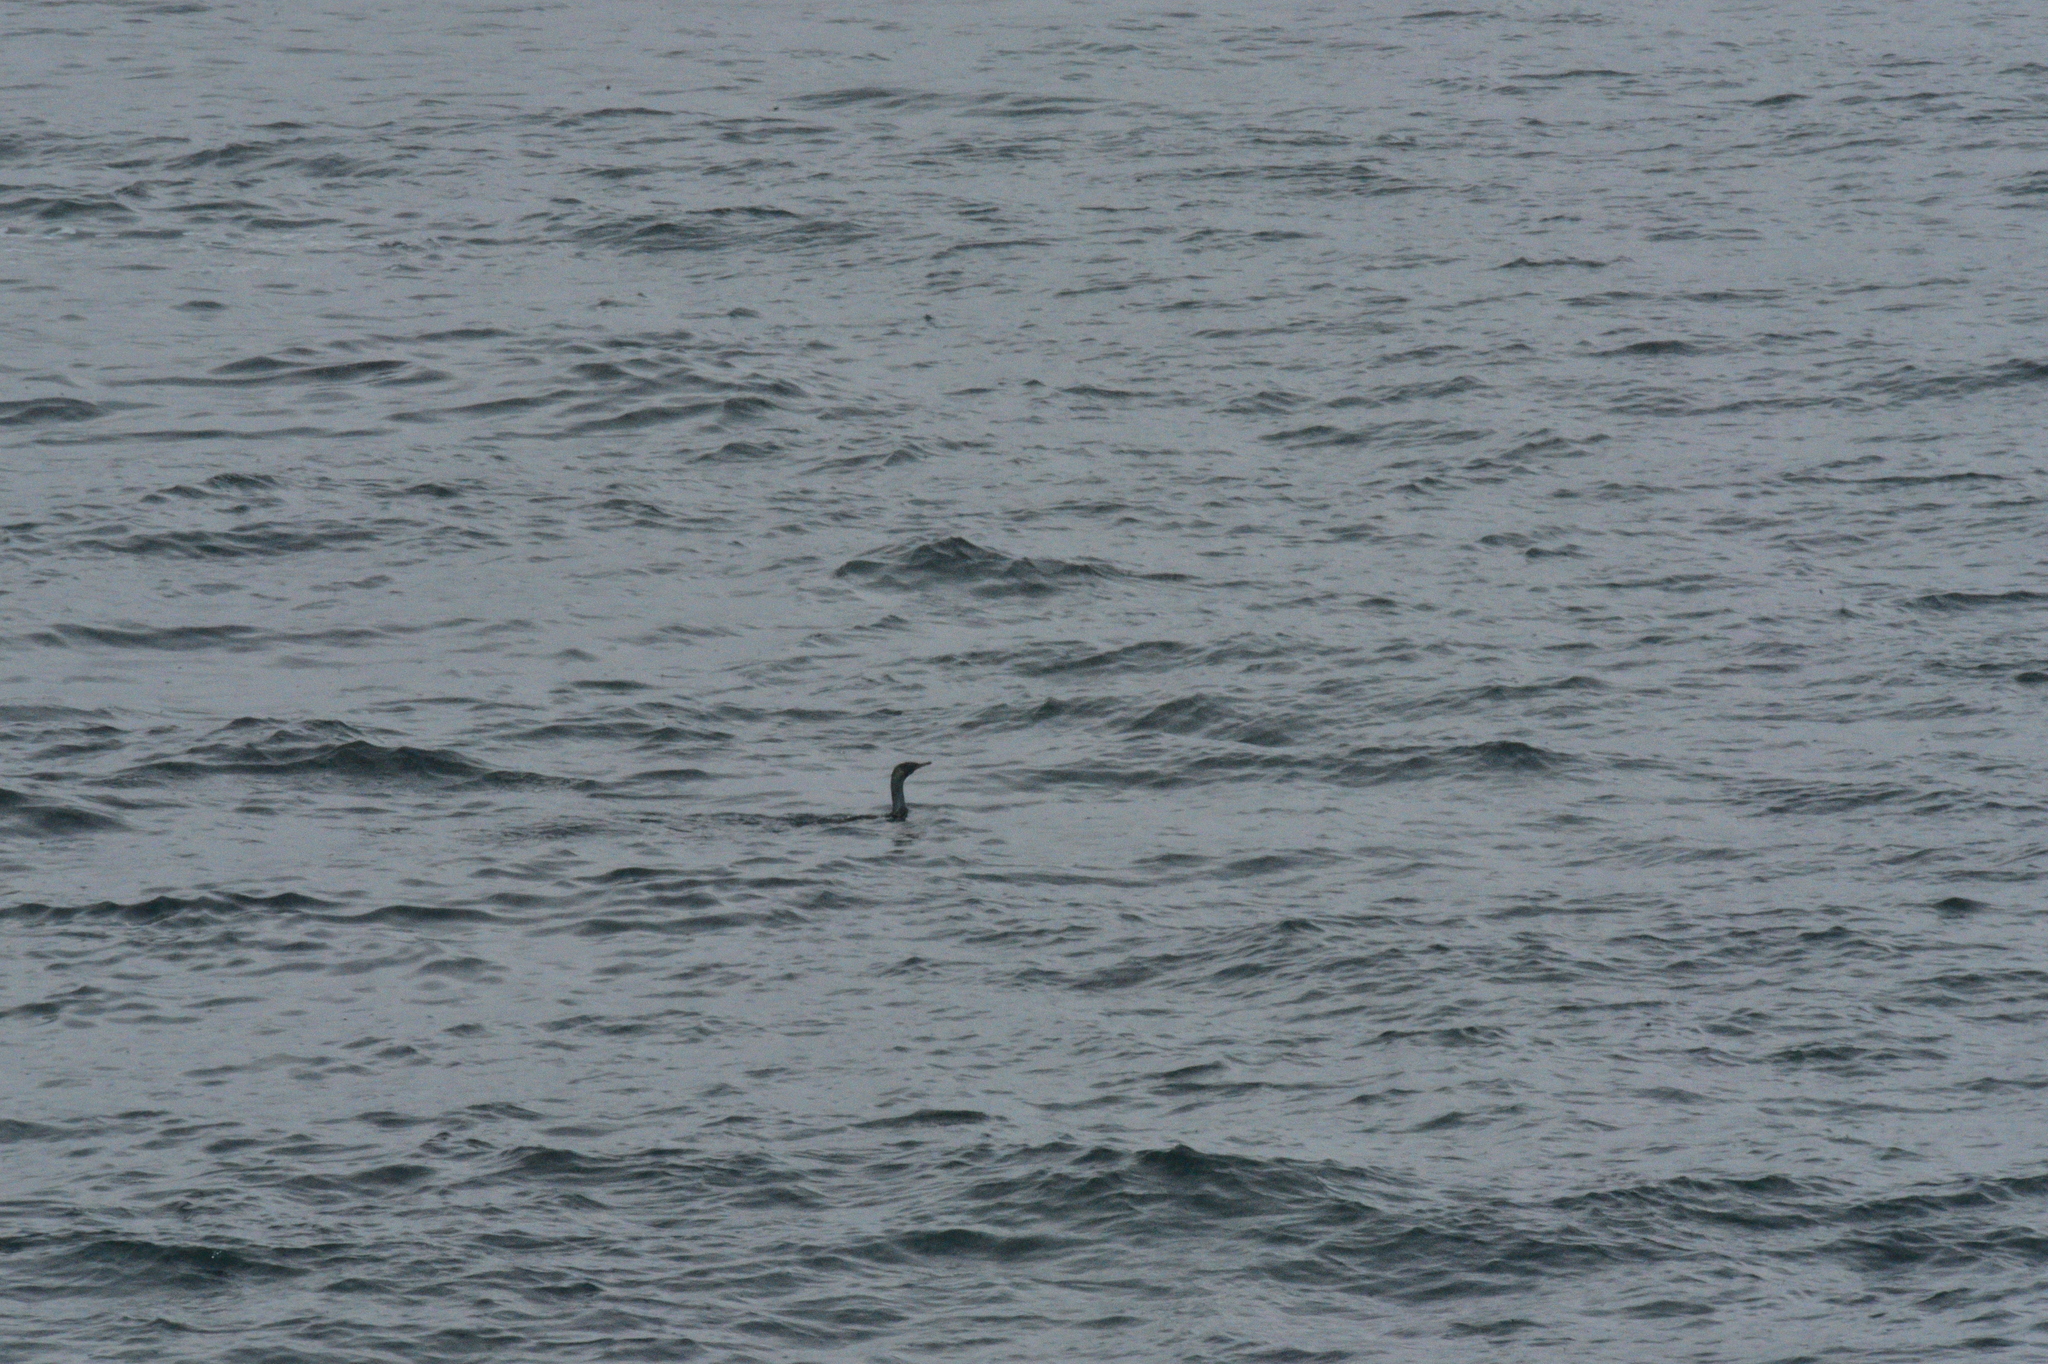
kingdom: Animalia
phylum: Chordata
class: Aves
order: Suliformes
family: Phalacrocoracidae
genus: Phalacrocorax
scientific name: Phalacrocorax pelagicus
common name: Pelagic cormorant
